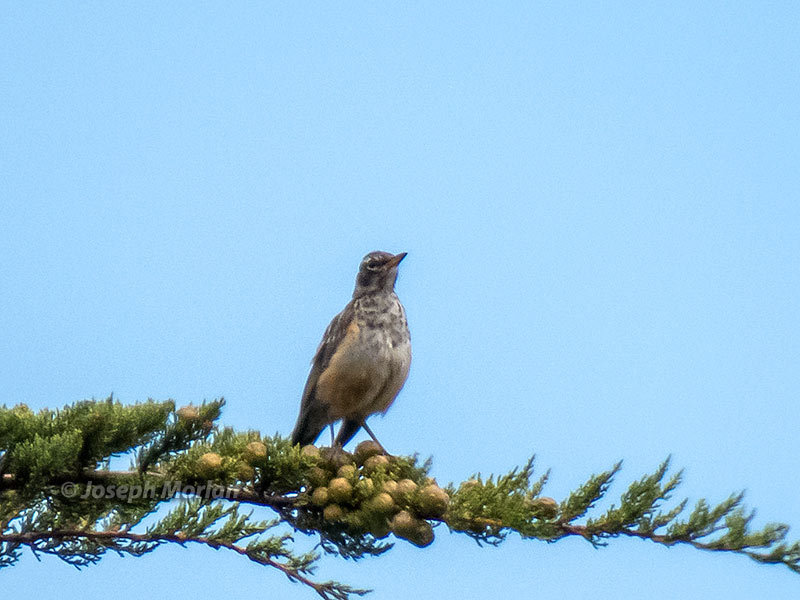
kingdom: Animalia
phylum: Chordata
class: Aves
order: Passeriformes
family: Turdidae
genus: Turdus
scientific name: Turdus migratorius
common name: American robin
